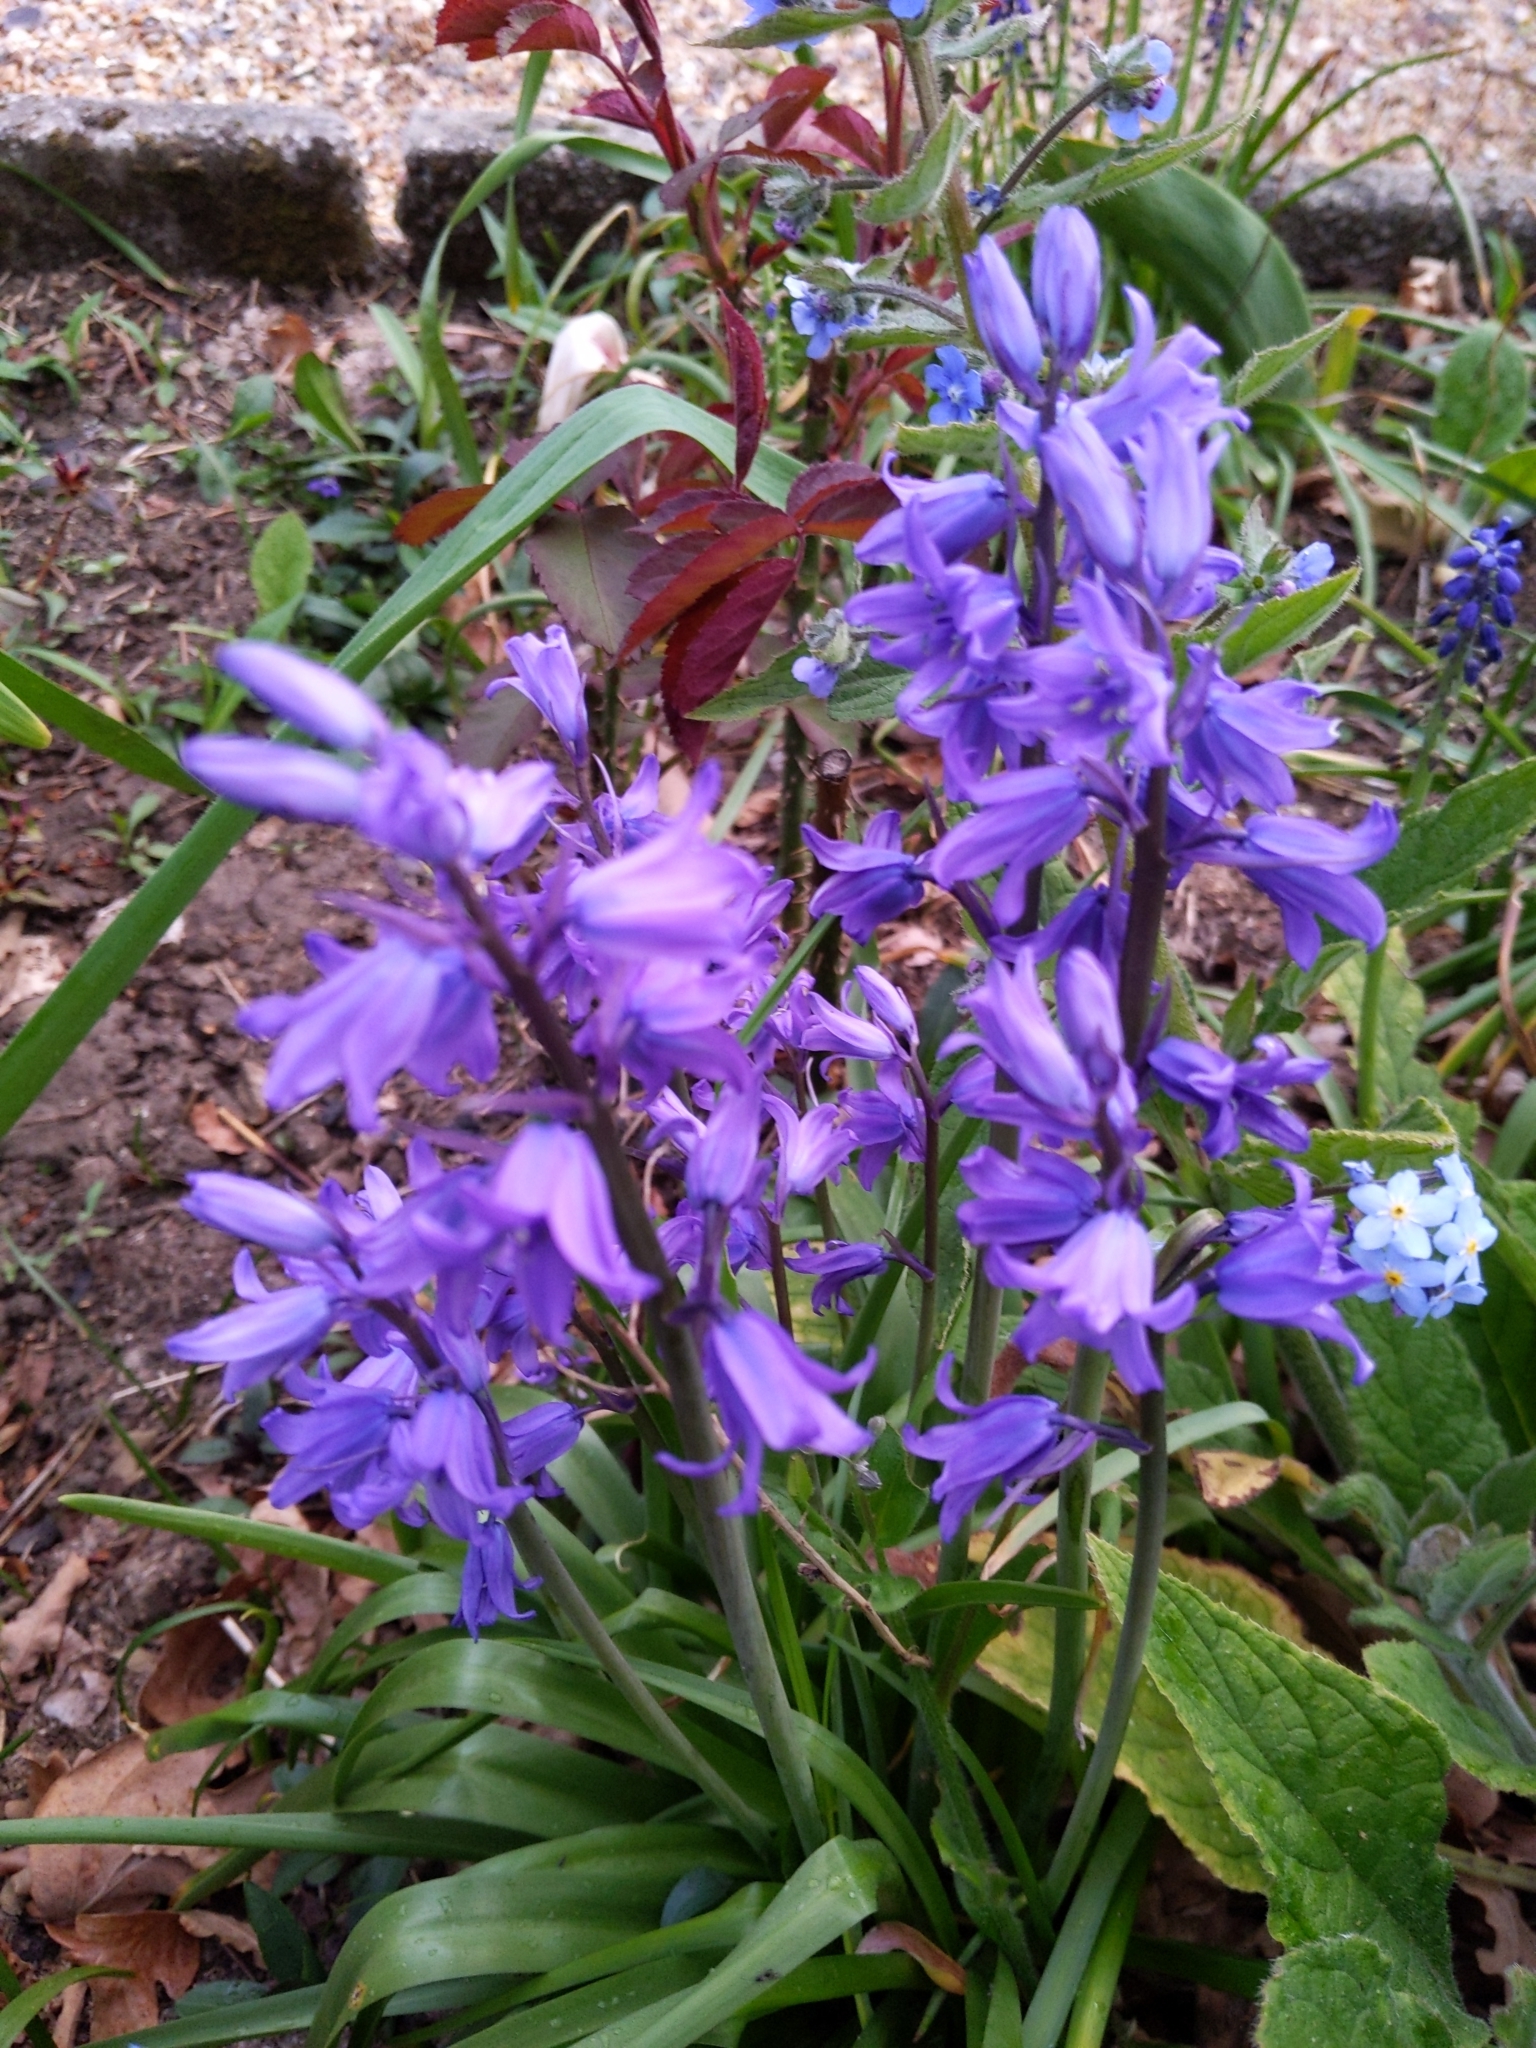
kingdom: Plantae
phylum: Tracheophyta
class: Liliopsida
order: Asparagales
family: Asparagaceae
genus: Hyacinthoides
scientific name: Hyacinthoides massartiana
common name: Hyacinthoides
